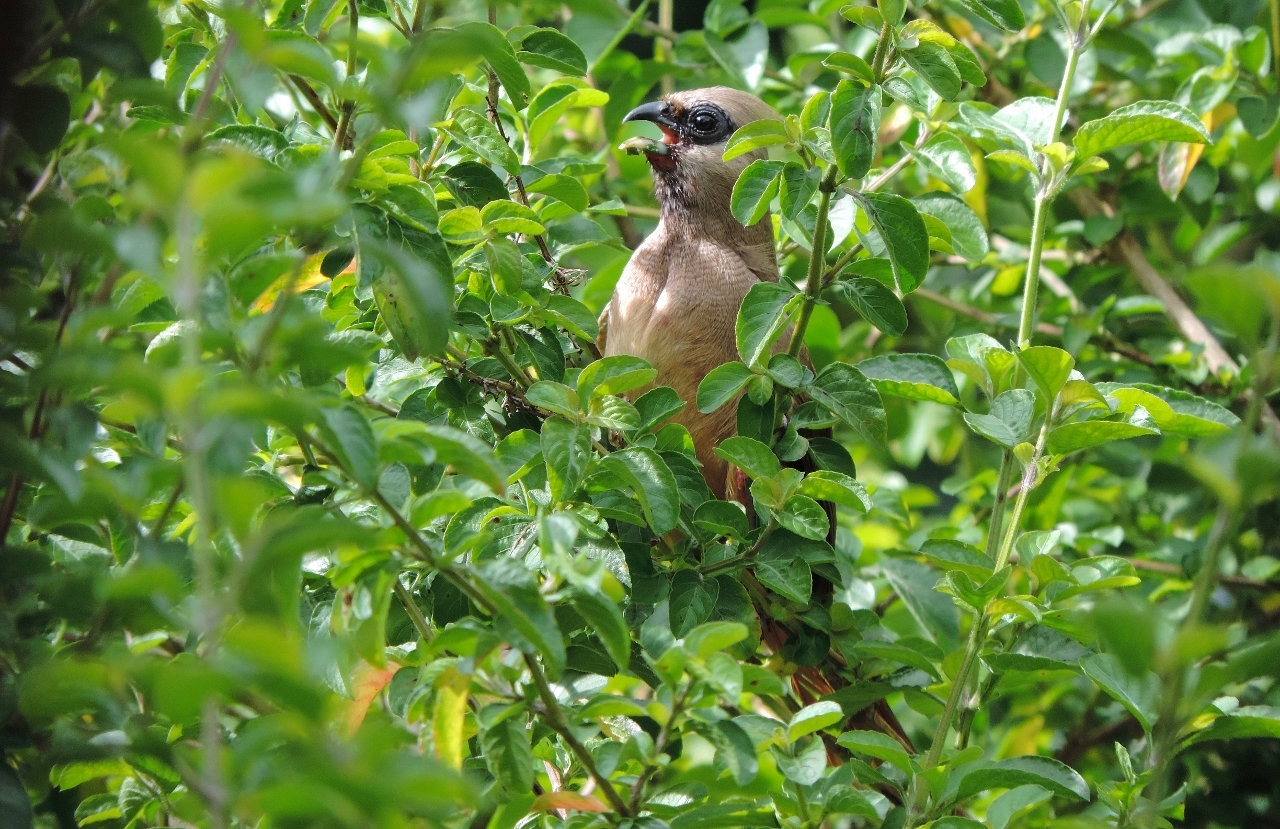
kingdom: Animalia
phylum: Chordata
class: Aves
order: Coliiformes
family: Coliidae
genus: Colius
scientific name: Colius striatus
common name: Speckled mousebird
